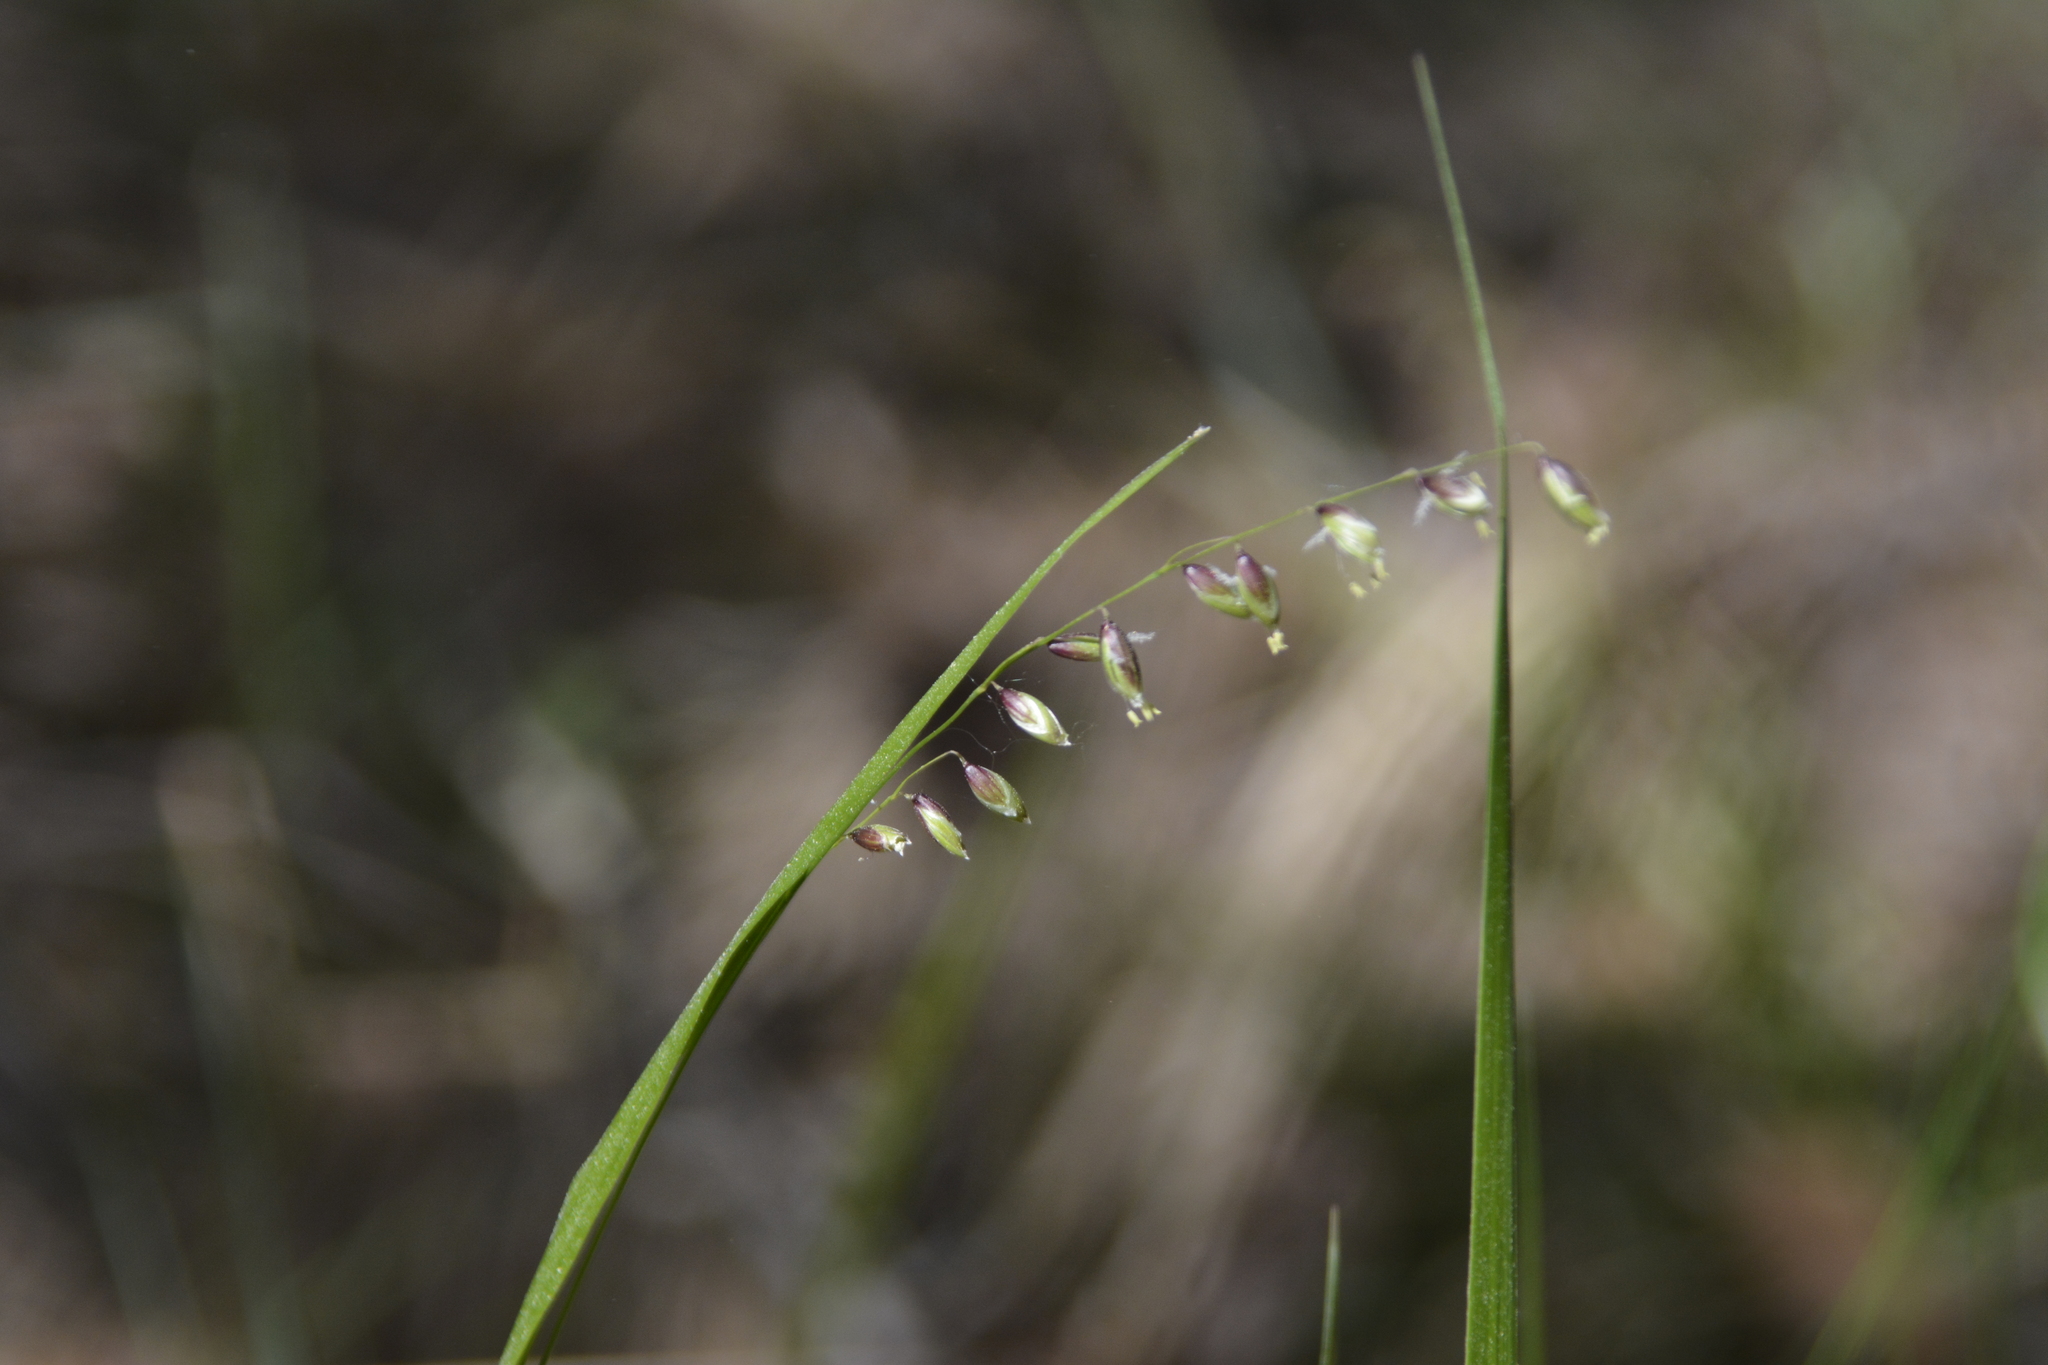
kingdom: Plantae
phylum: Tracheophyta
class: Liliopsida
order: Poales
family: Poaceae
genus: Melica
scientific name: Melica nutans
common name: Mountain melick
